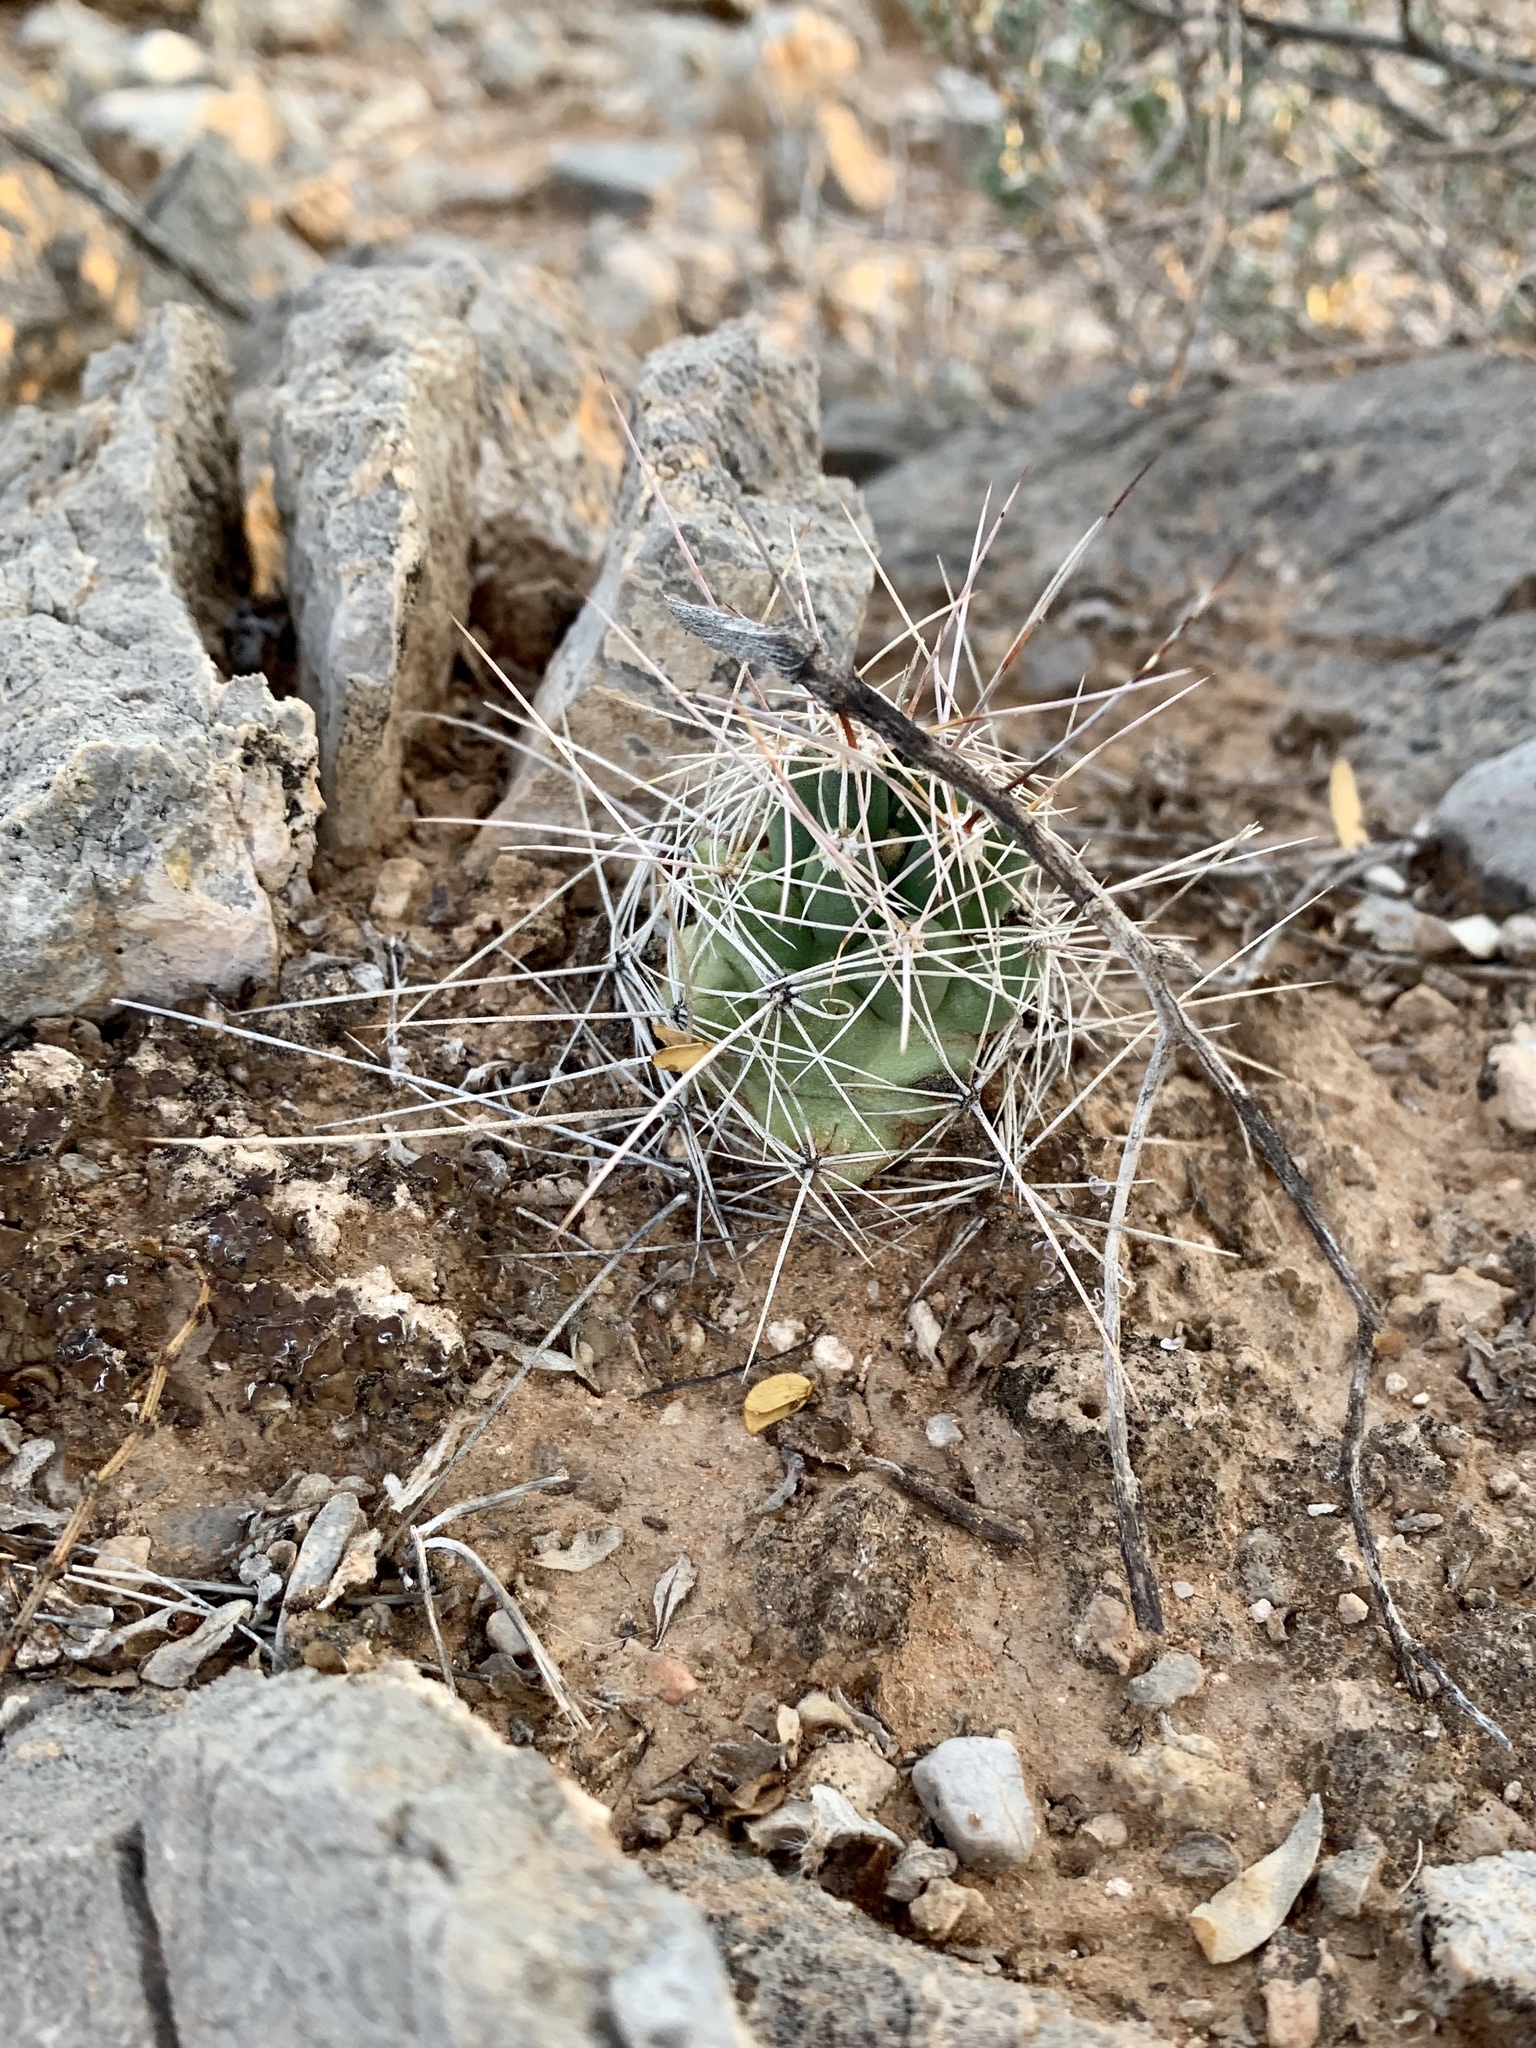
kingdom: Plantae
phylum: Tracheophyta
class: Magnoliopsida
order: Caryophyllales
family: Cactaceae
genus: Coryphantha
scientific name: Coryphantha macromeris
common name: Nipple beehive cactus
